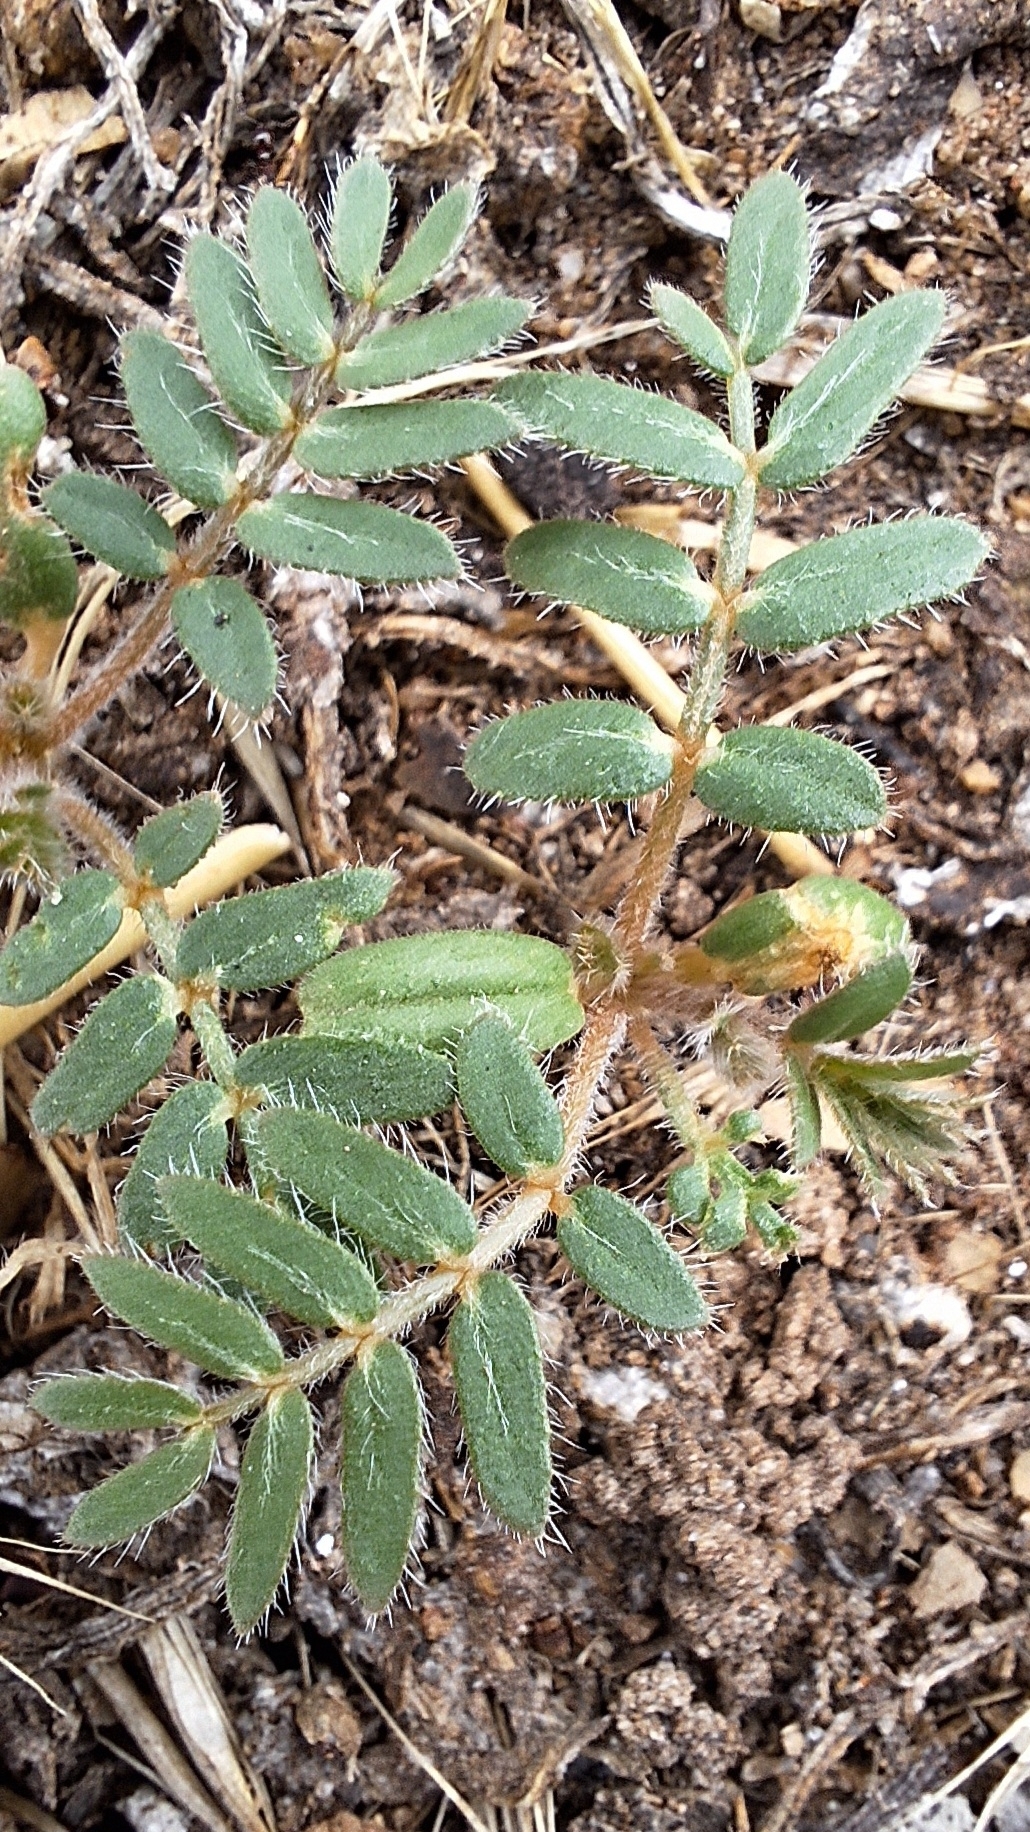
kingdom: Plantae
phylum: Tracheophyta
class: Magnoliopsida
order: Zygophyllales
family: Zygophyllaceae
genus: Tribulus
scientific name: Tribulus terrestris
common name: Puncturevine
